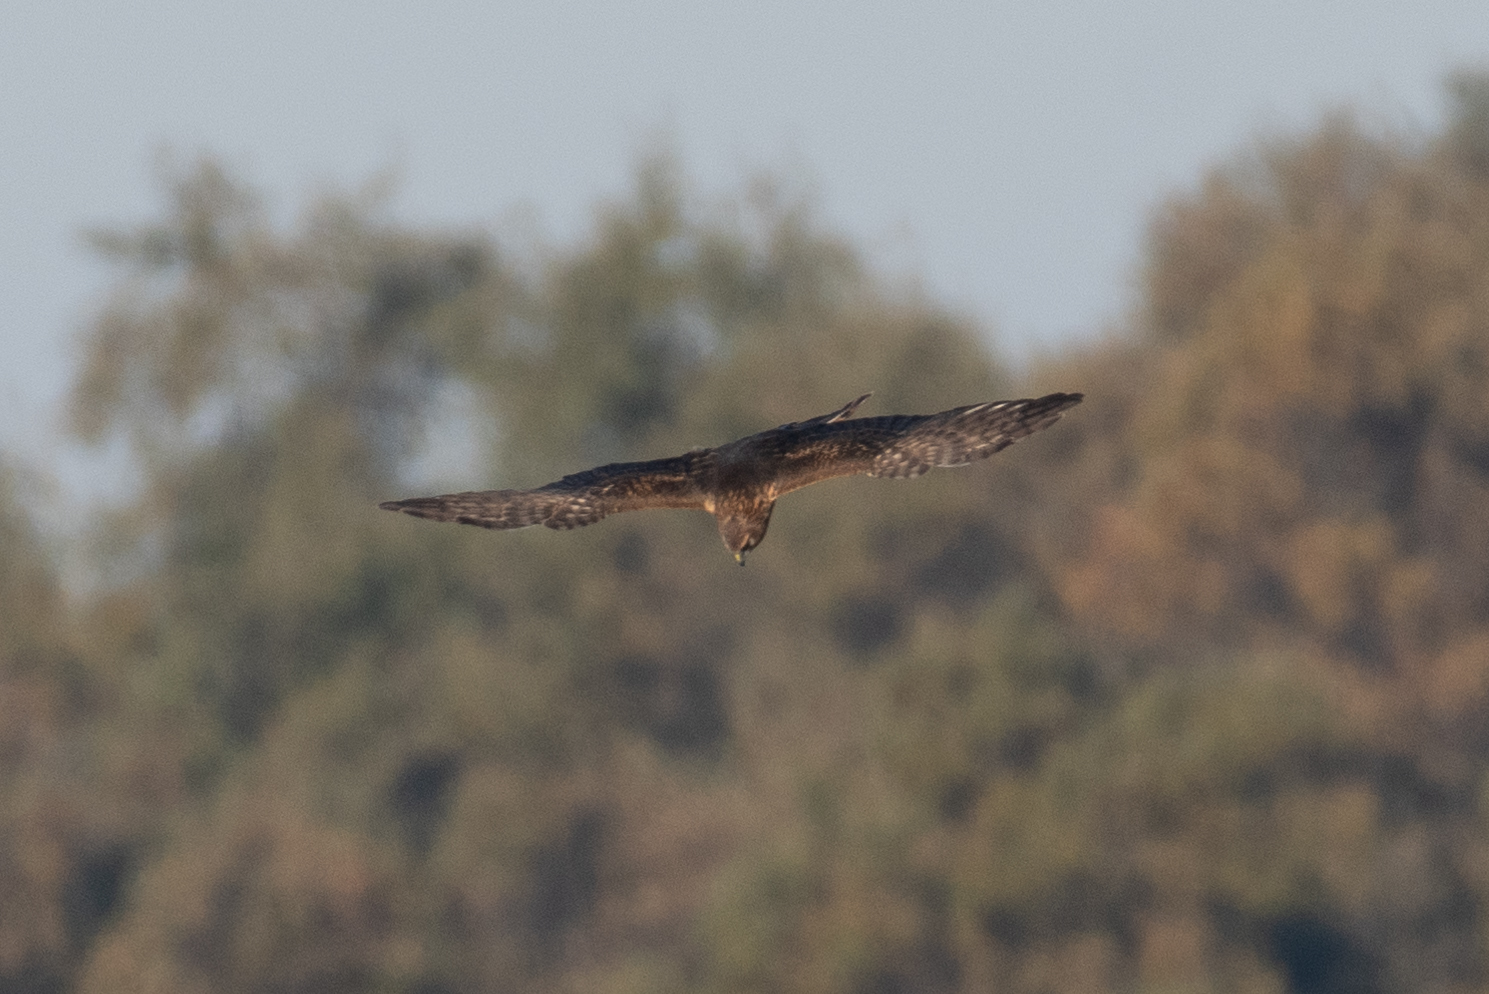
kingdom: Animalia
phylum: Chordata
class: Aves
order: Accipitriformes
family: Accipitridae
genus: Circus
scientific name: Circus cyaneus
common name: Hen harrier
